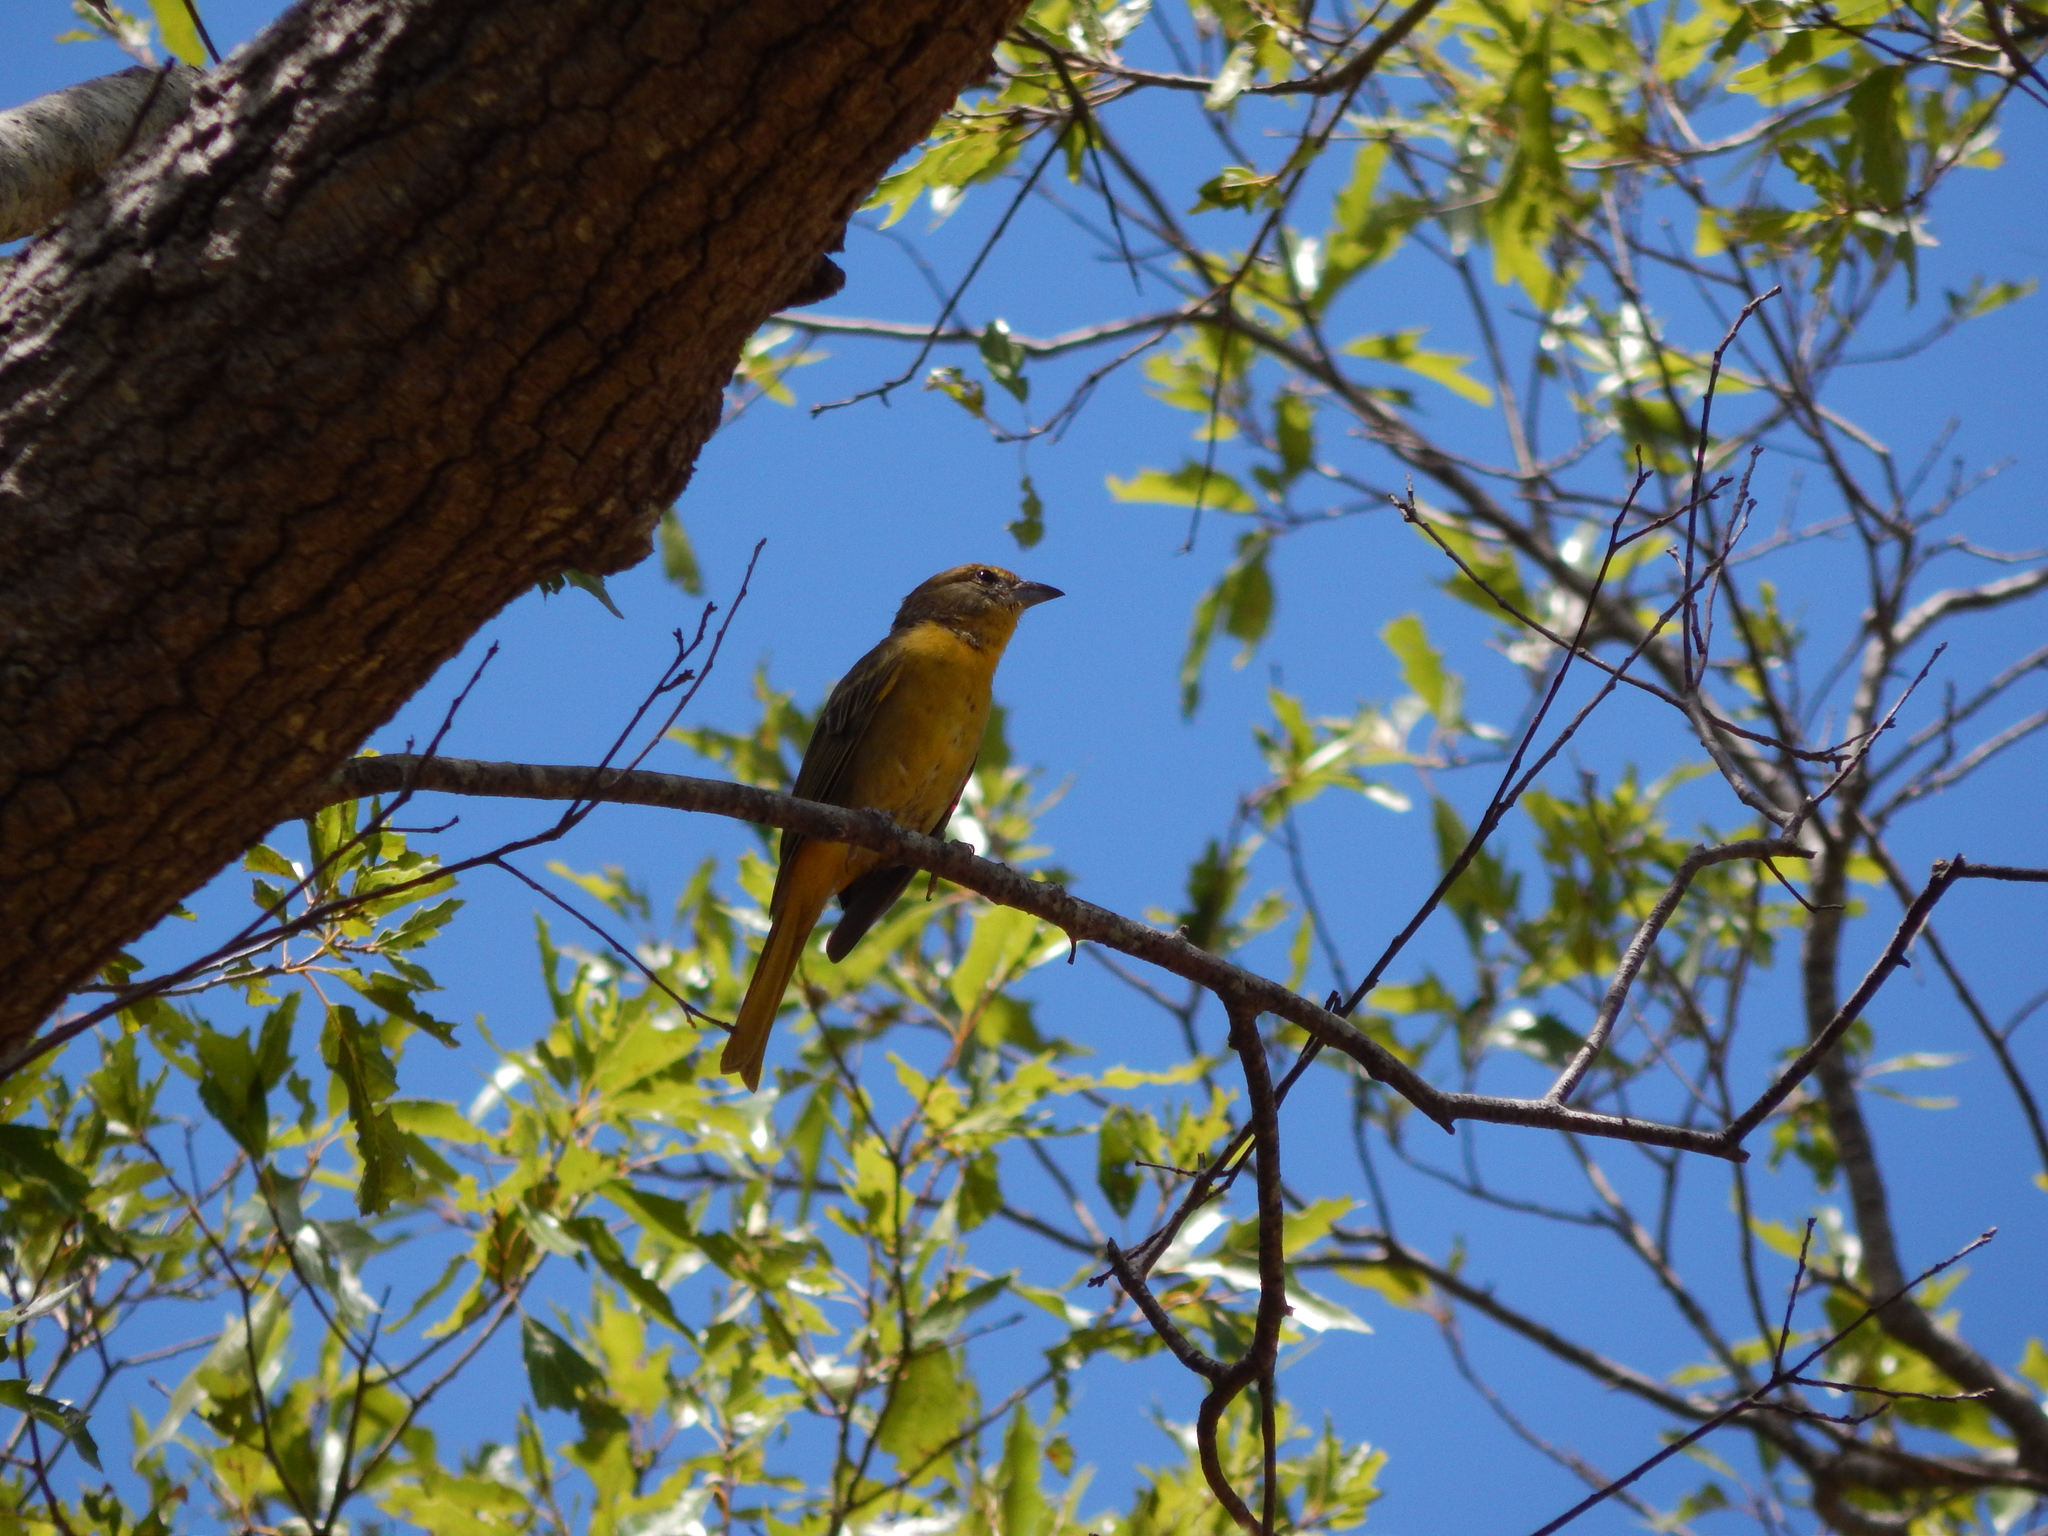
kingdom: Animalia
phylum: Chordata
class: Aves
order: Passeriformes
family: Cardinalidae
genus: Piranga
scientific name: Piranga flava
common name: Red tanager
